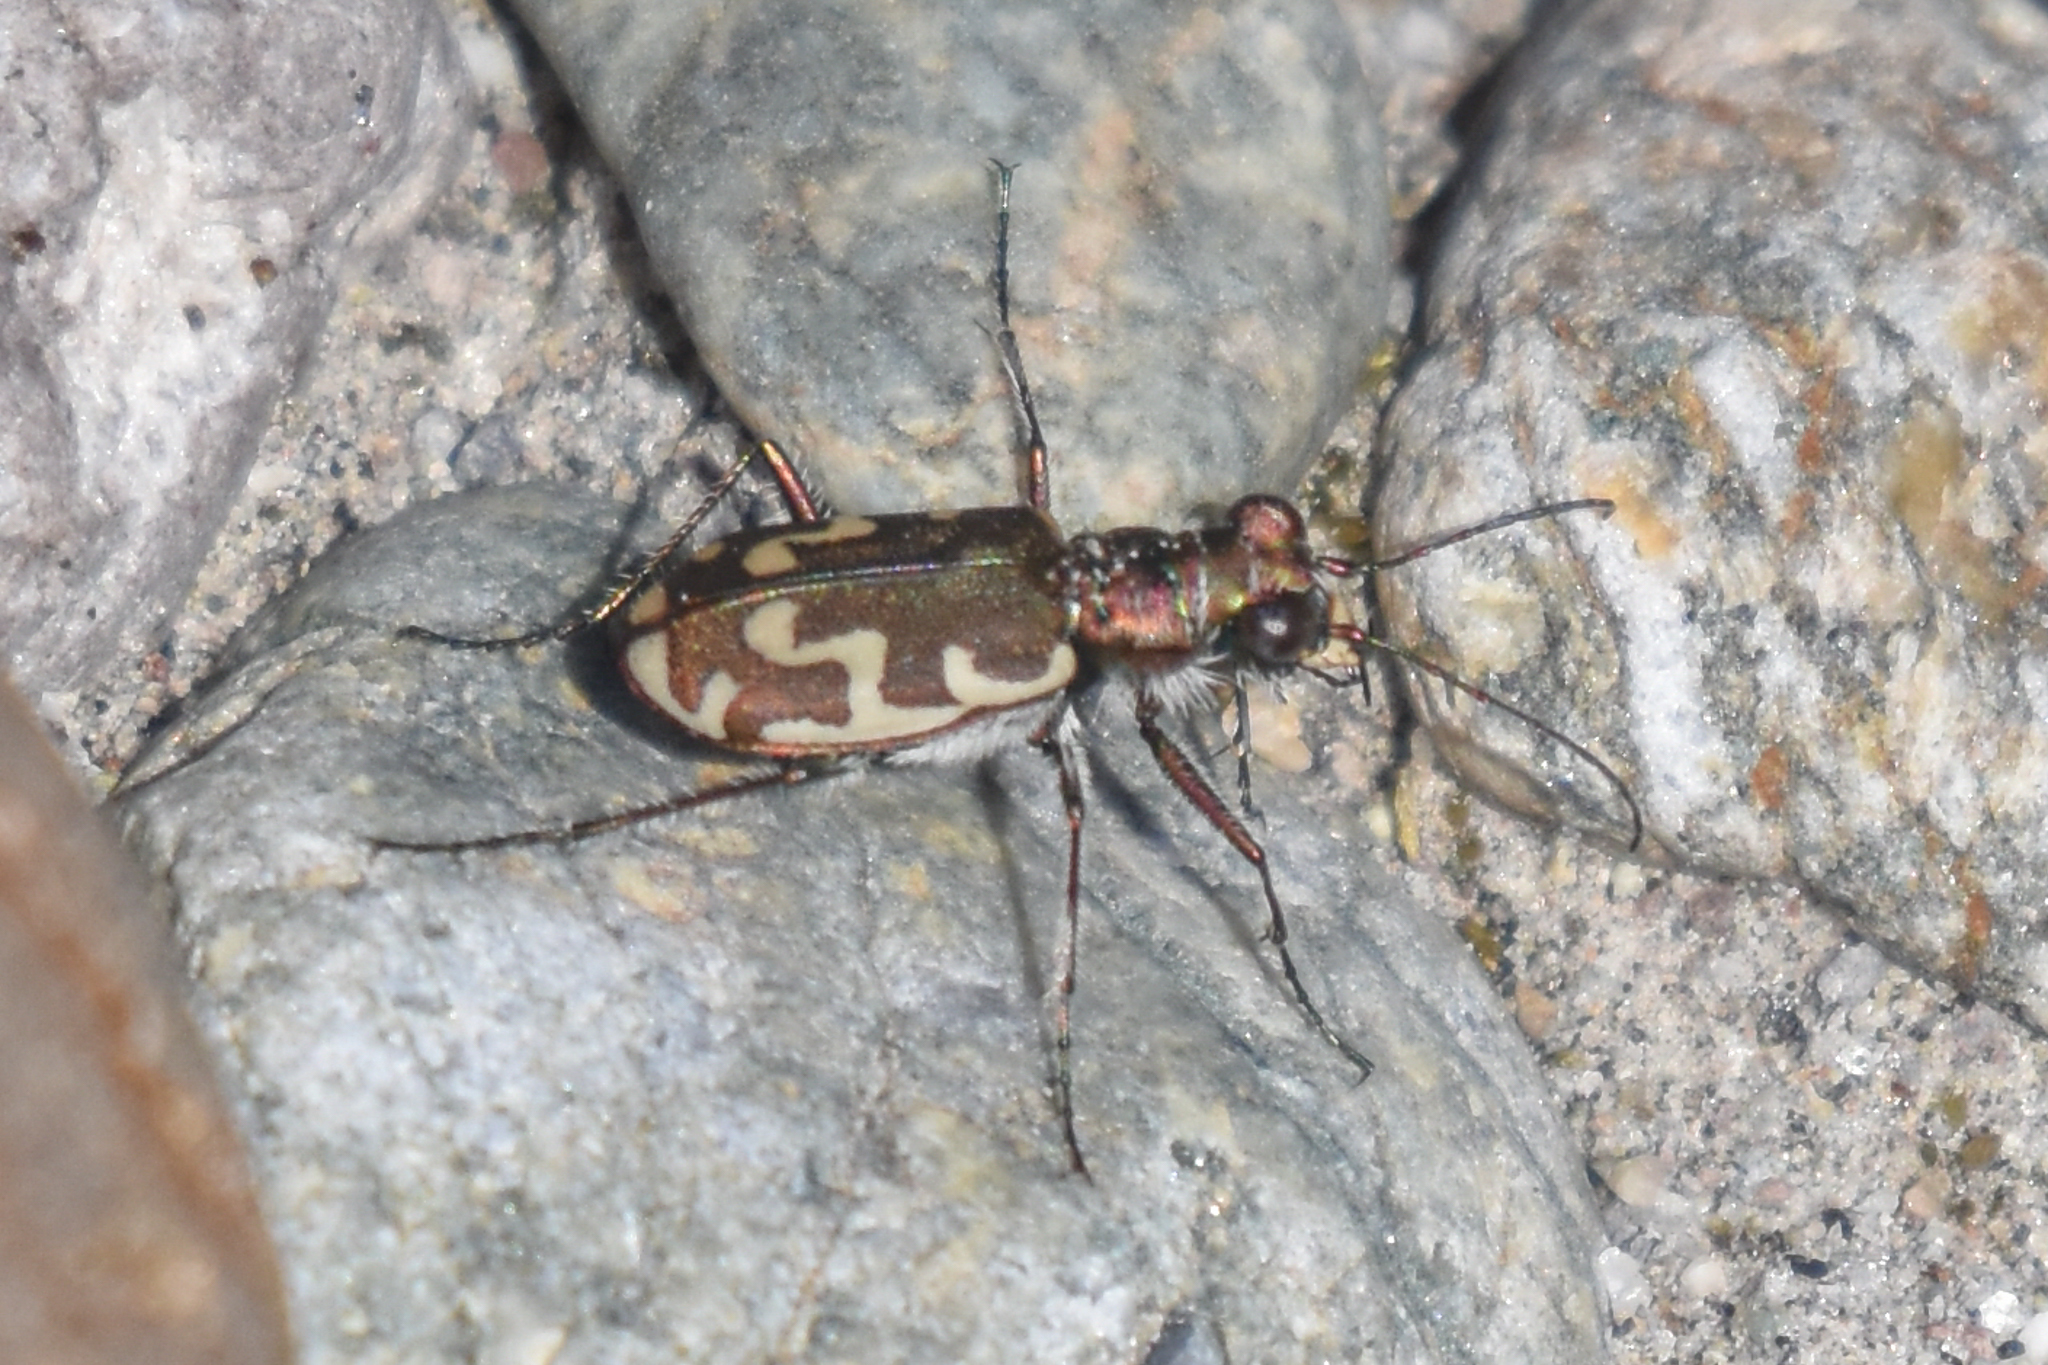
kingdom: Animalia
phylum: Arthropoda
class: Insecta
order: Coleoptera
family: Carabidae
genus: Cicindela
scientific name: Cicindela repanda
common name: Bronzed tiger beetle
